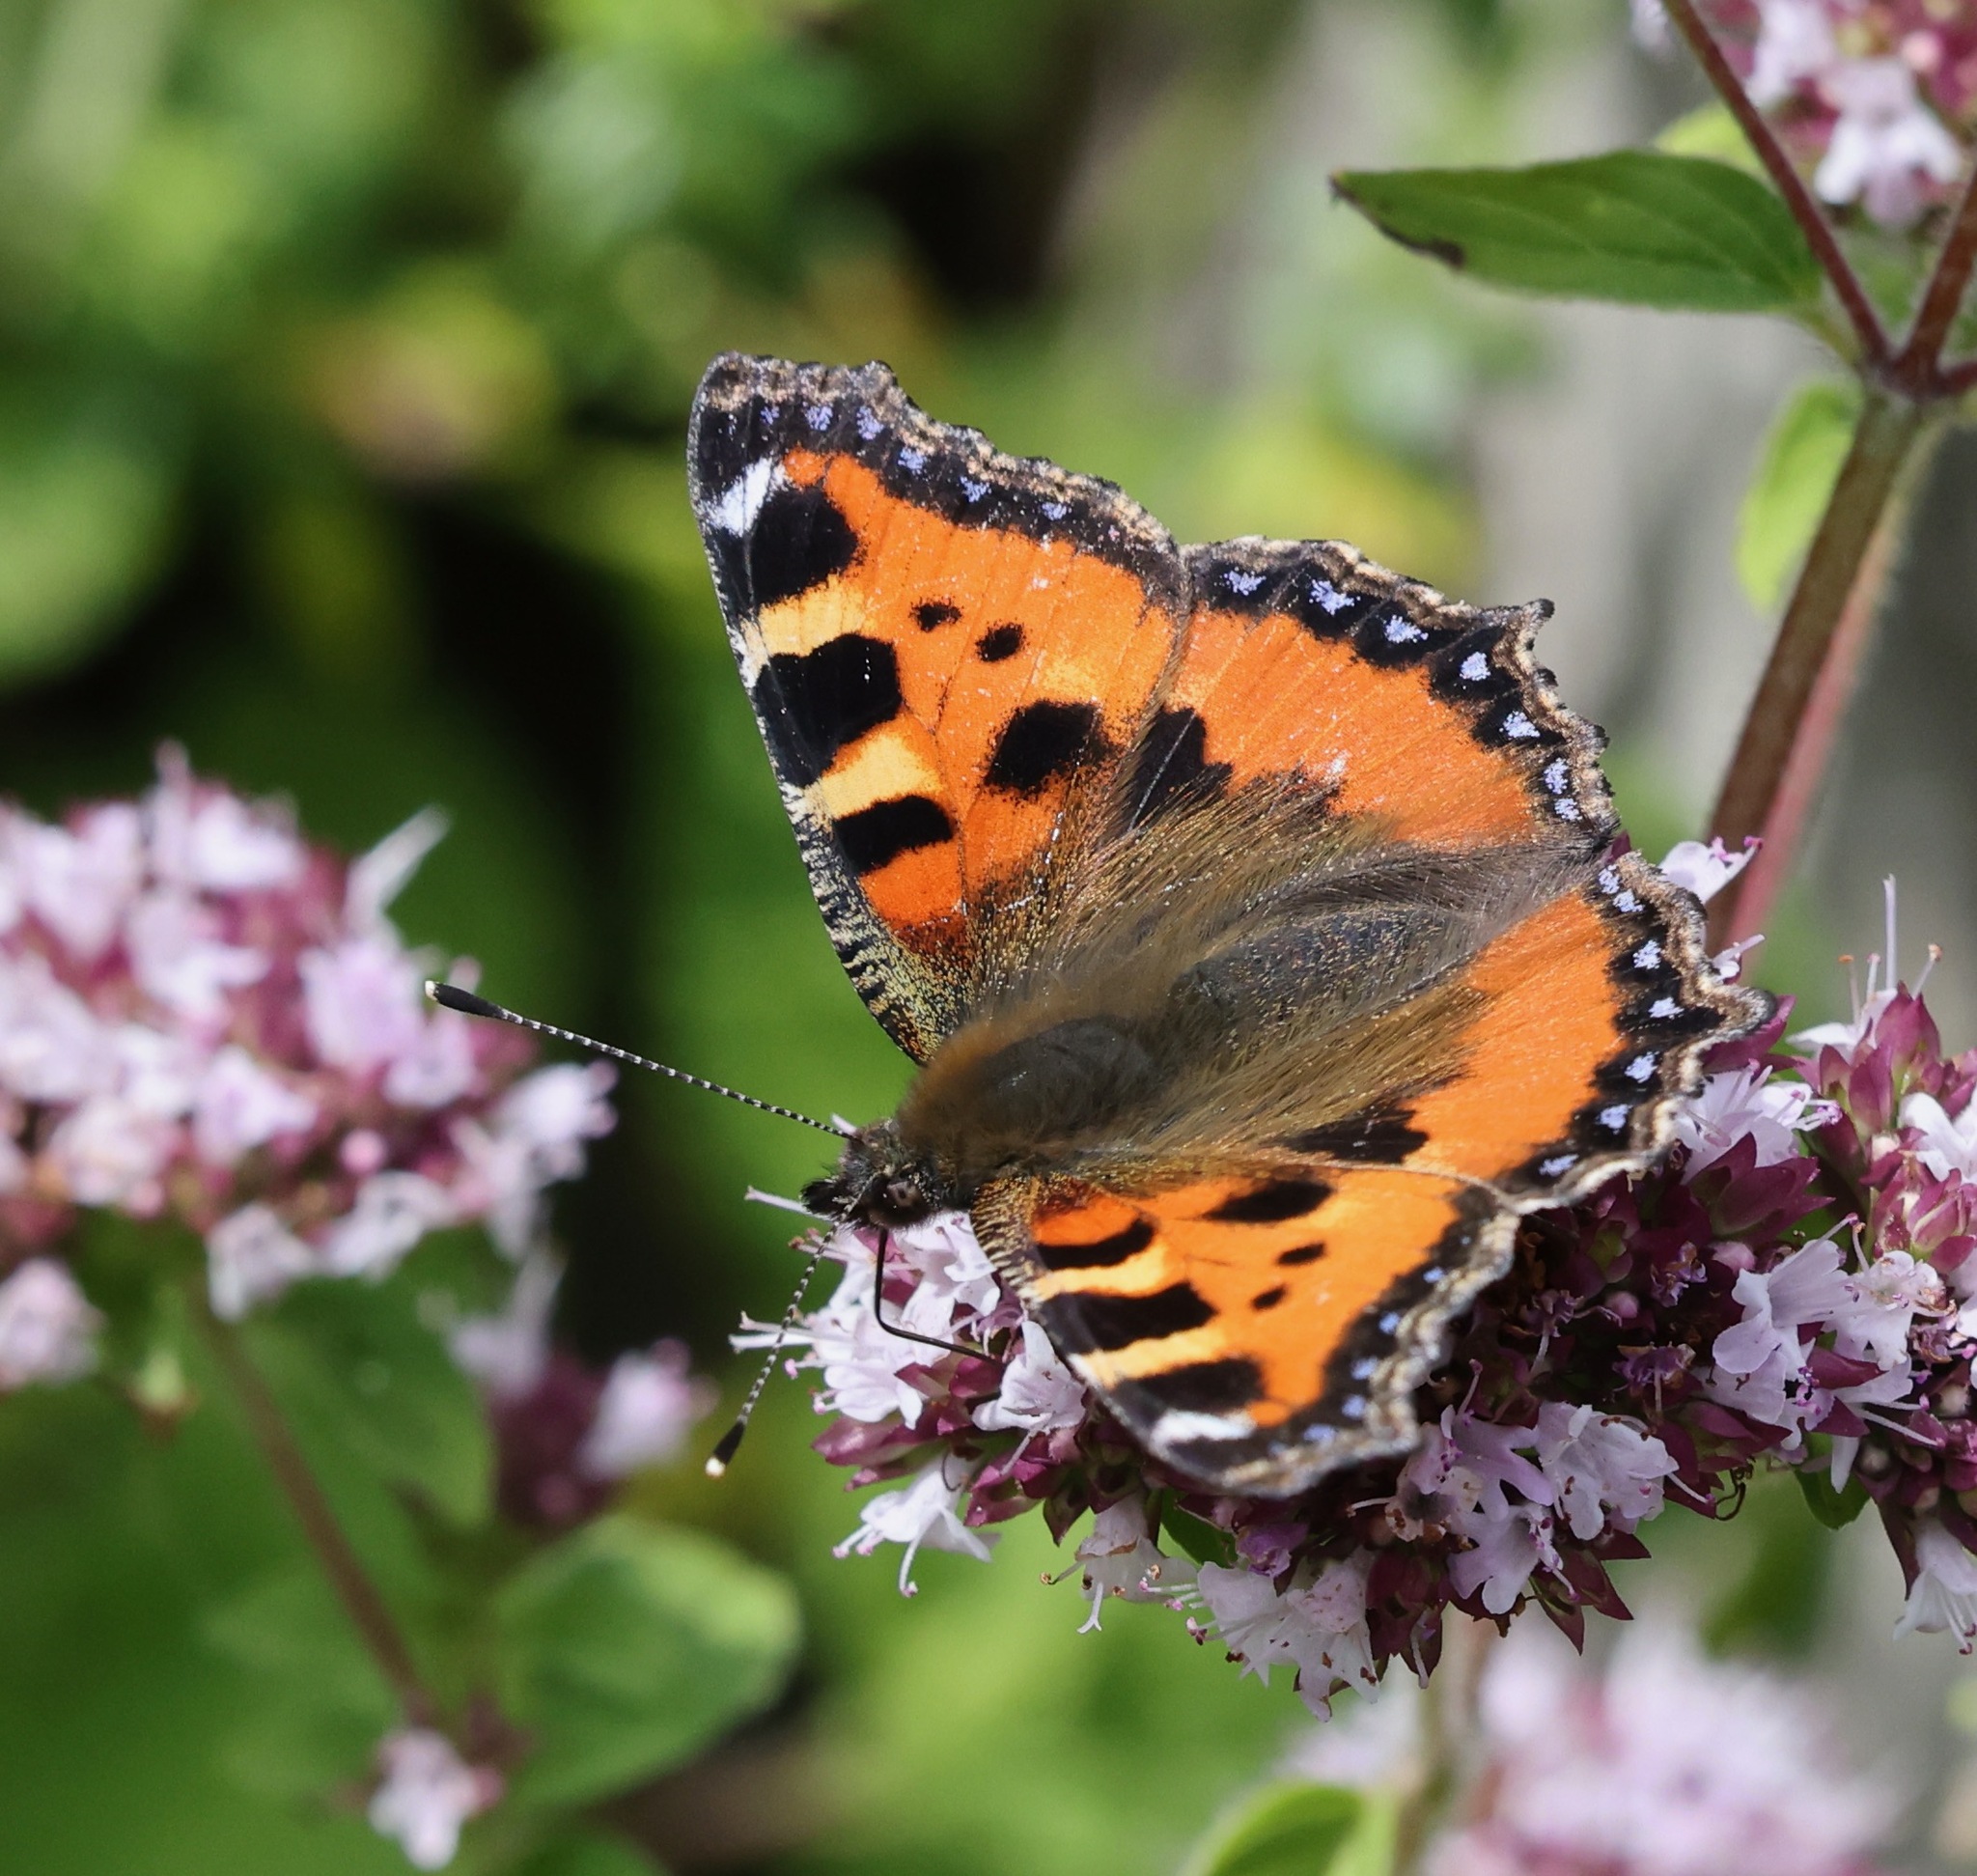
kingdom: Animalia
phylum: Arthropoda
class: Insecta
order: Lepidoptera
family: Nymphalidae
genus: Aglais
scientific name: Aglais urticae
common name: Small tortoiseshell
